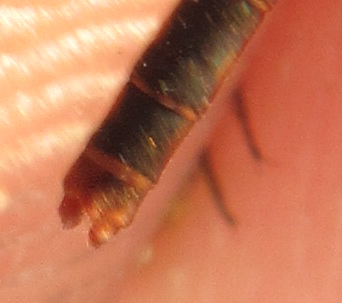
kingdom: Animalia
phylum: Arthropoda
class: Insecta
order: Odonata
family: Coenagrionidae
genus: Agriocnemis
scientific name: Agriocnemis ruberrima
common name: Orange wisp
